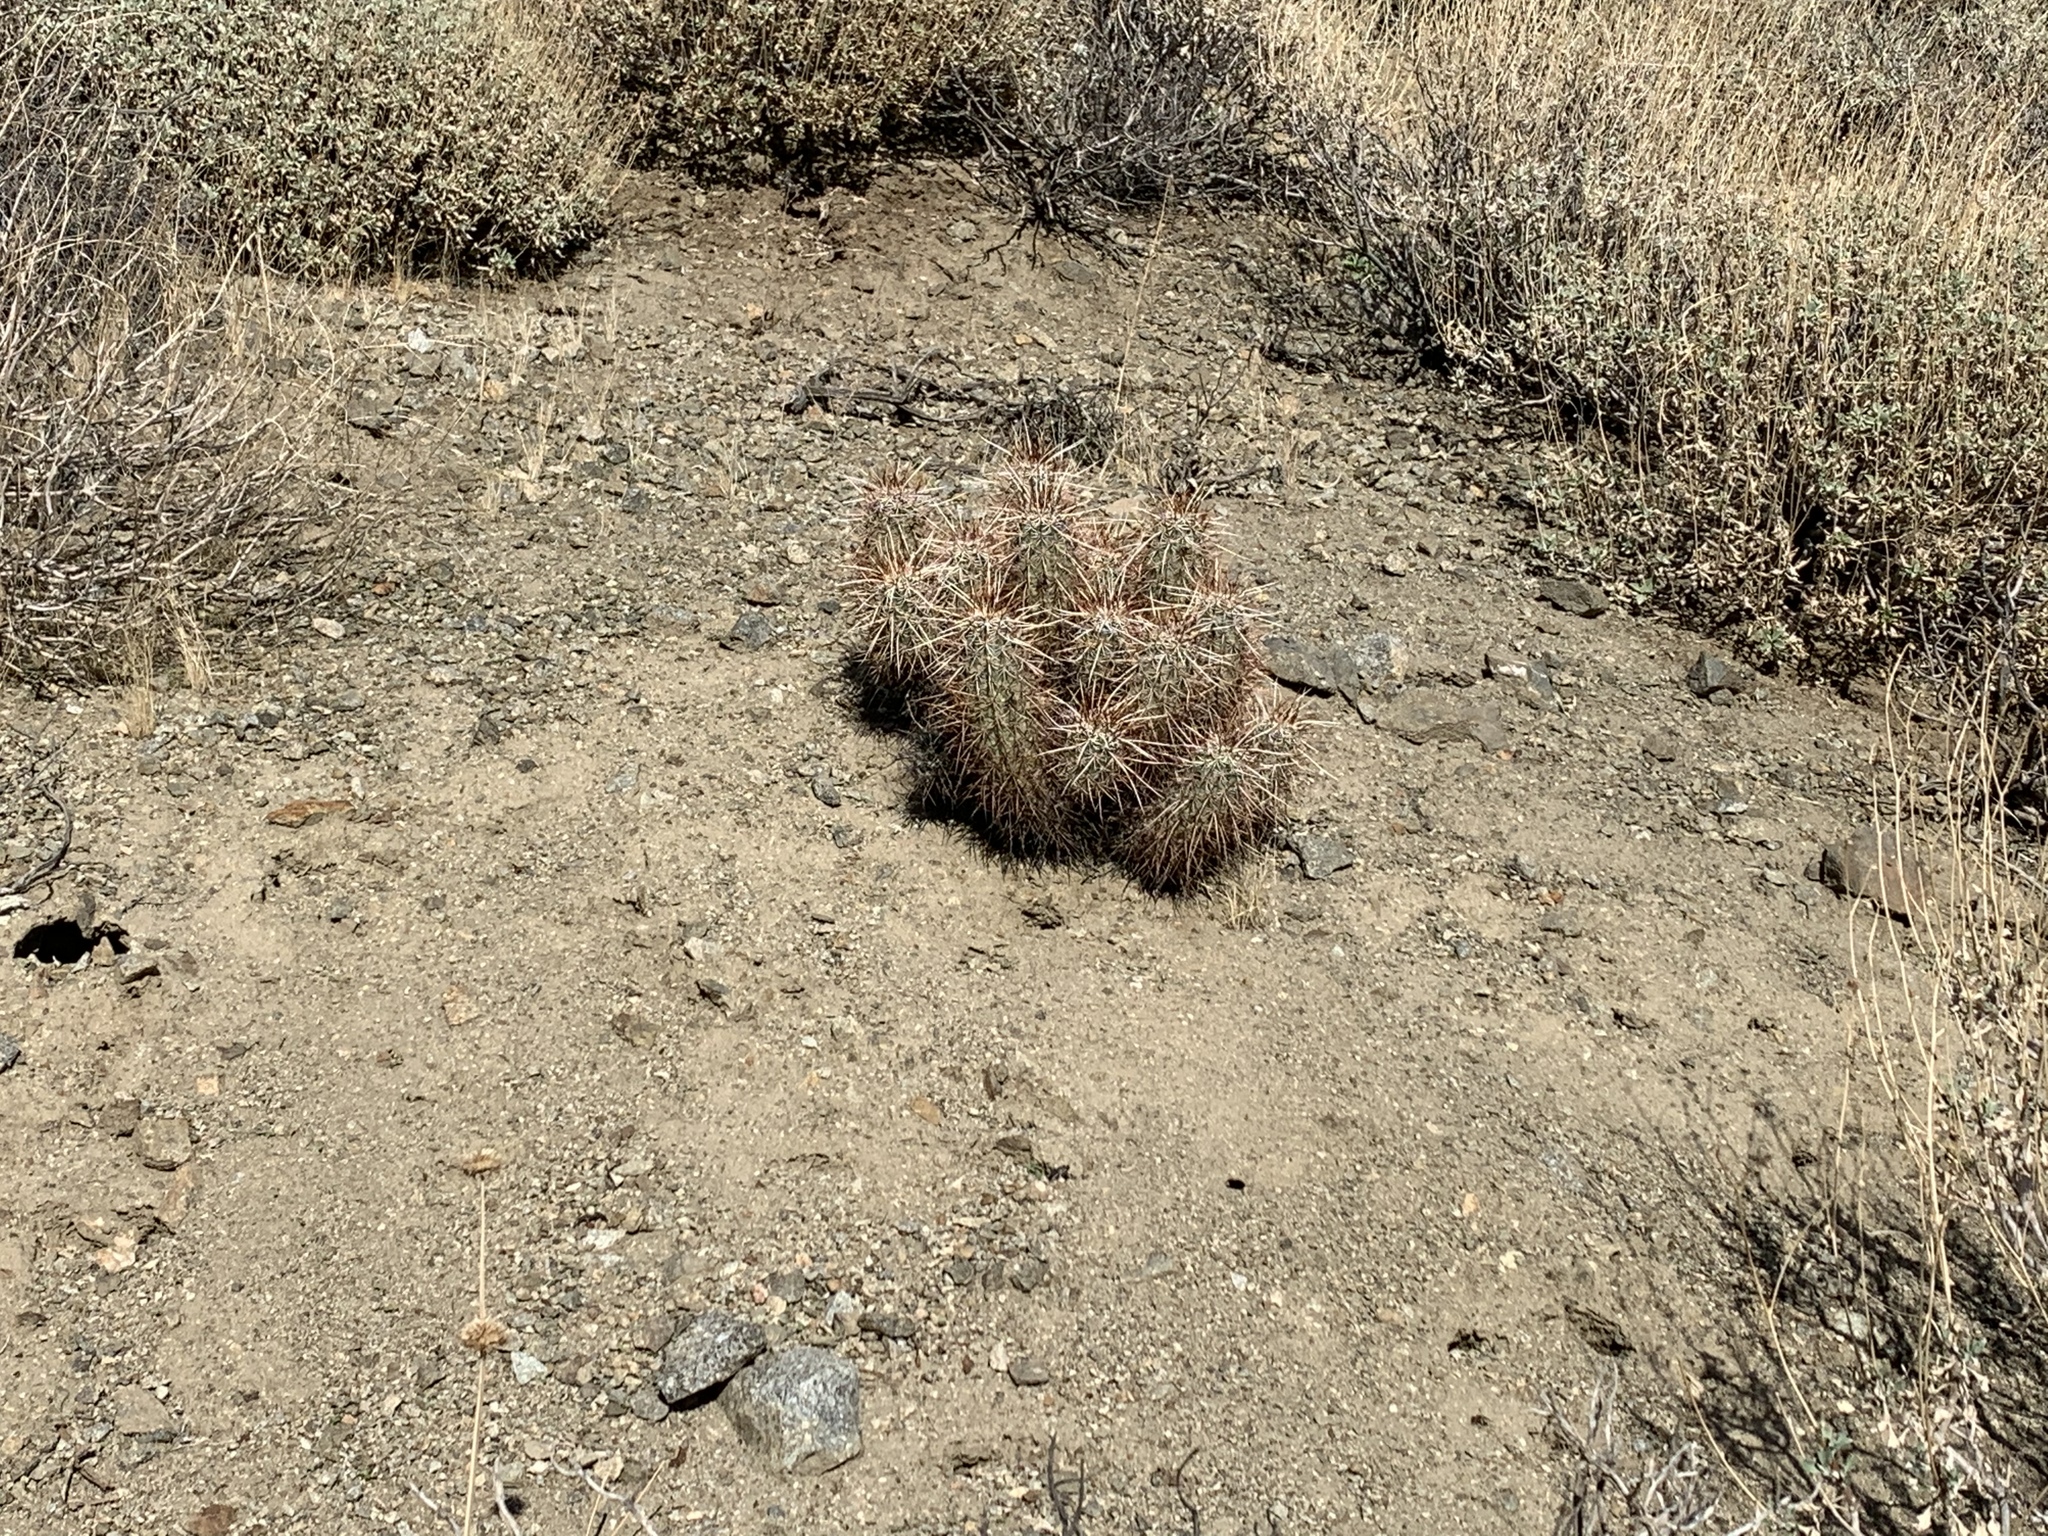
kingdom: Plantae
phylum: Tracheophyta
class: Magnoliopsida
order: Caryophyllales
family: Cactaceae
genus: Echinocereus
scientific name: Echinocereus engelmannii
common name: Engelmann's hedgehog cactus
